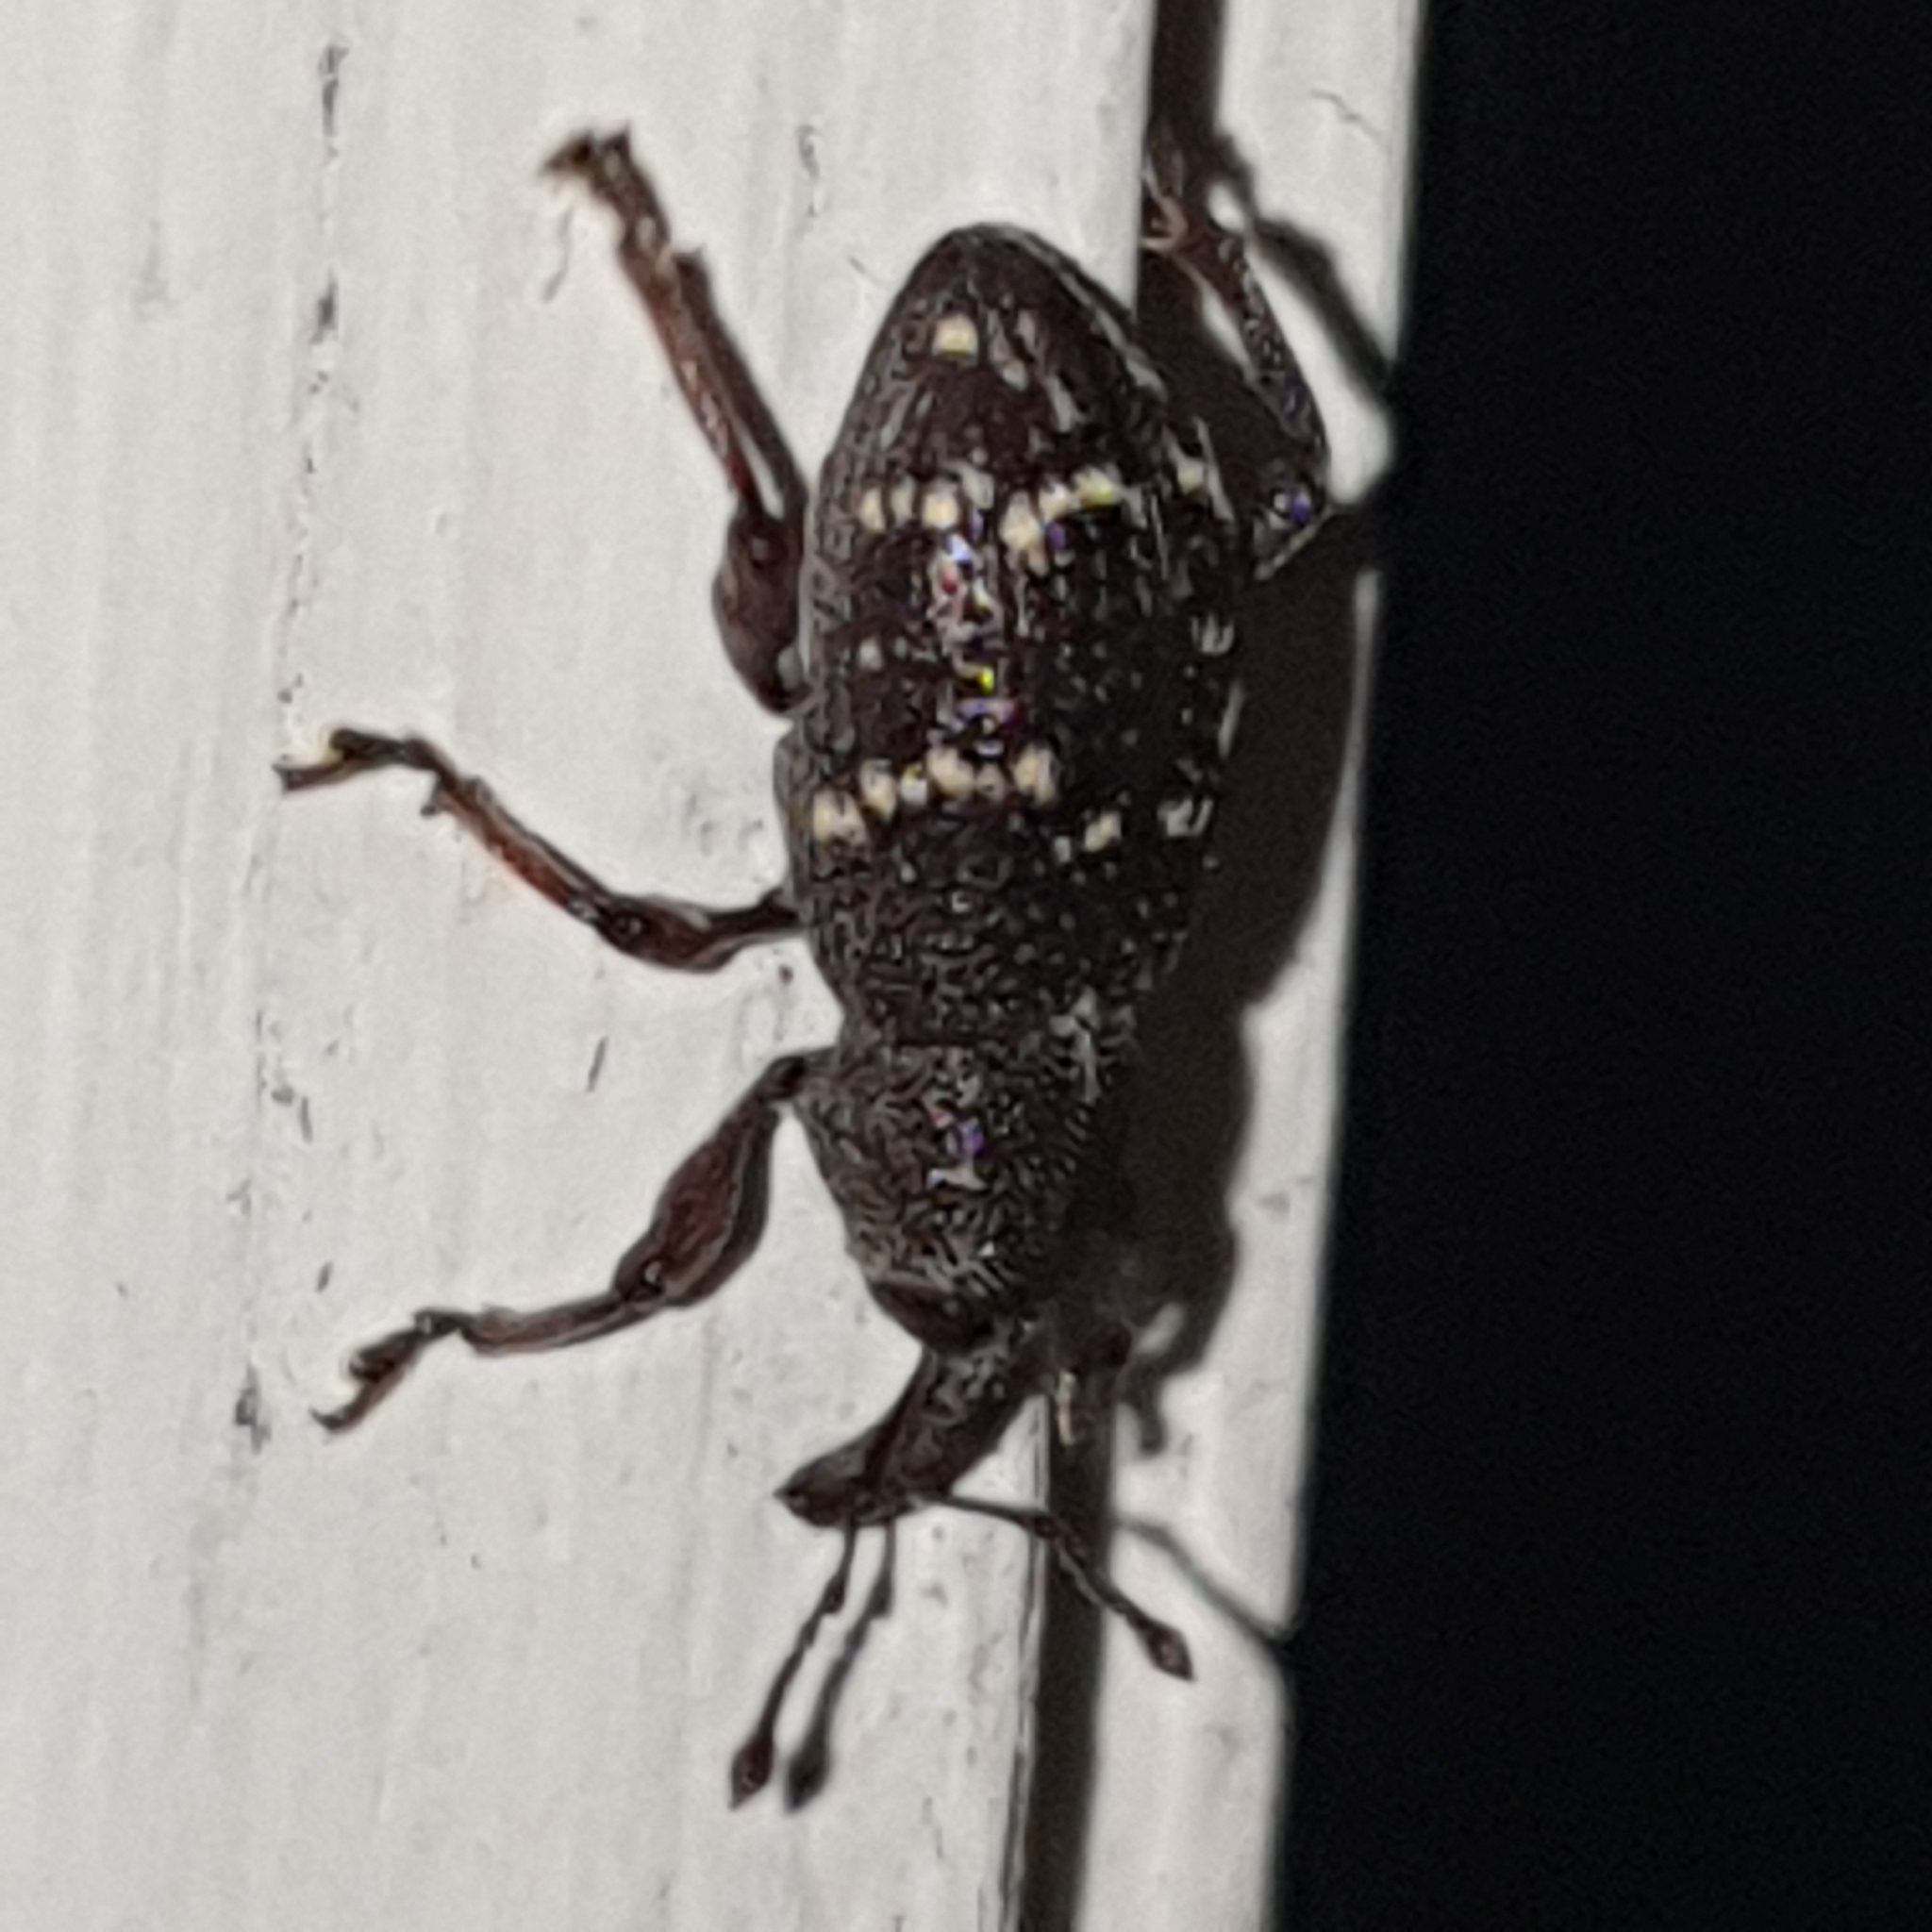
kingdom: Animalia
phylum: Arthropoda
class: Insecta
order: Coleoptera
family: Curculionidae
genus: Hylobius
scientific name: Hylobius abietis
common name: Large pine weevil
